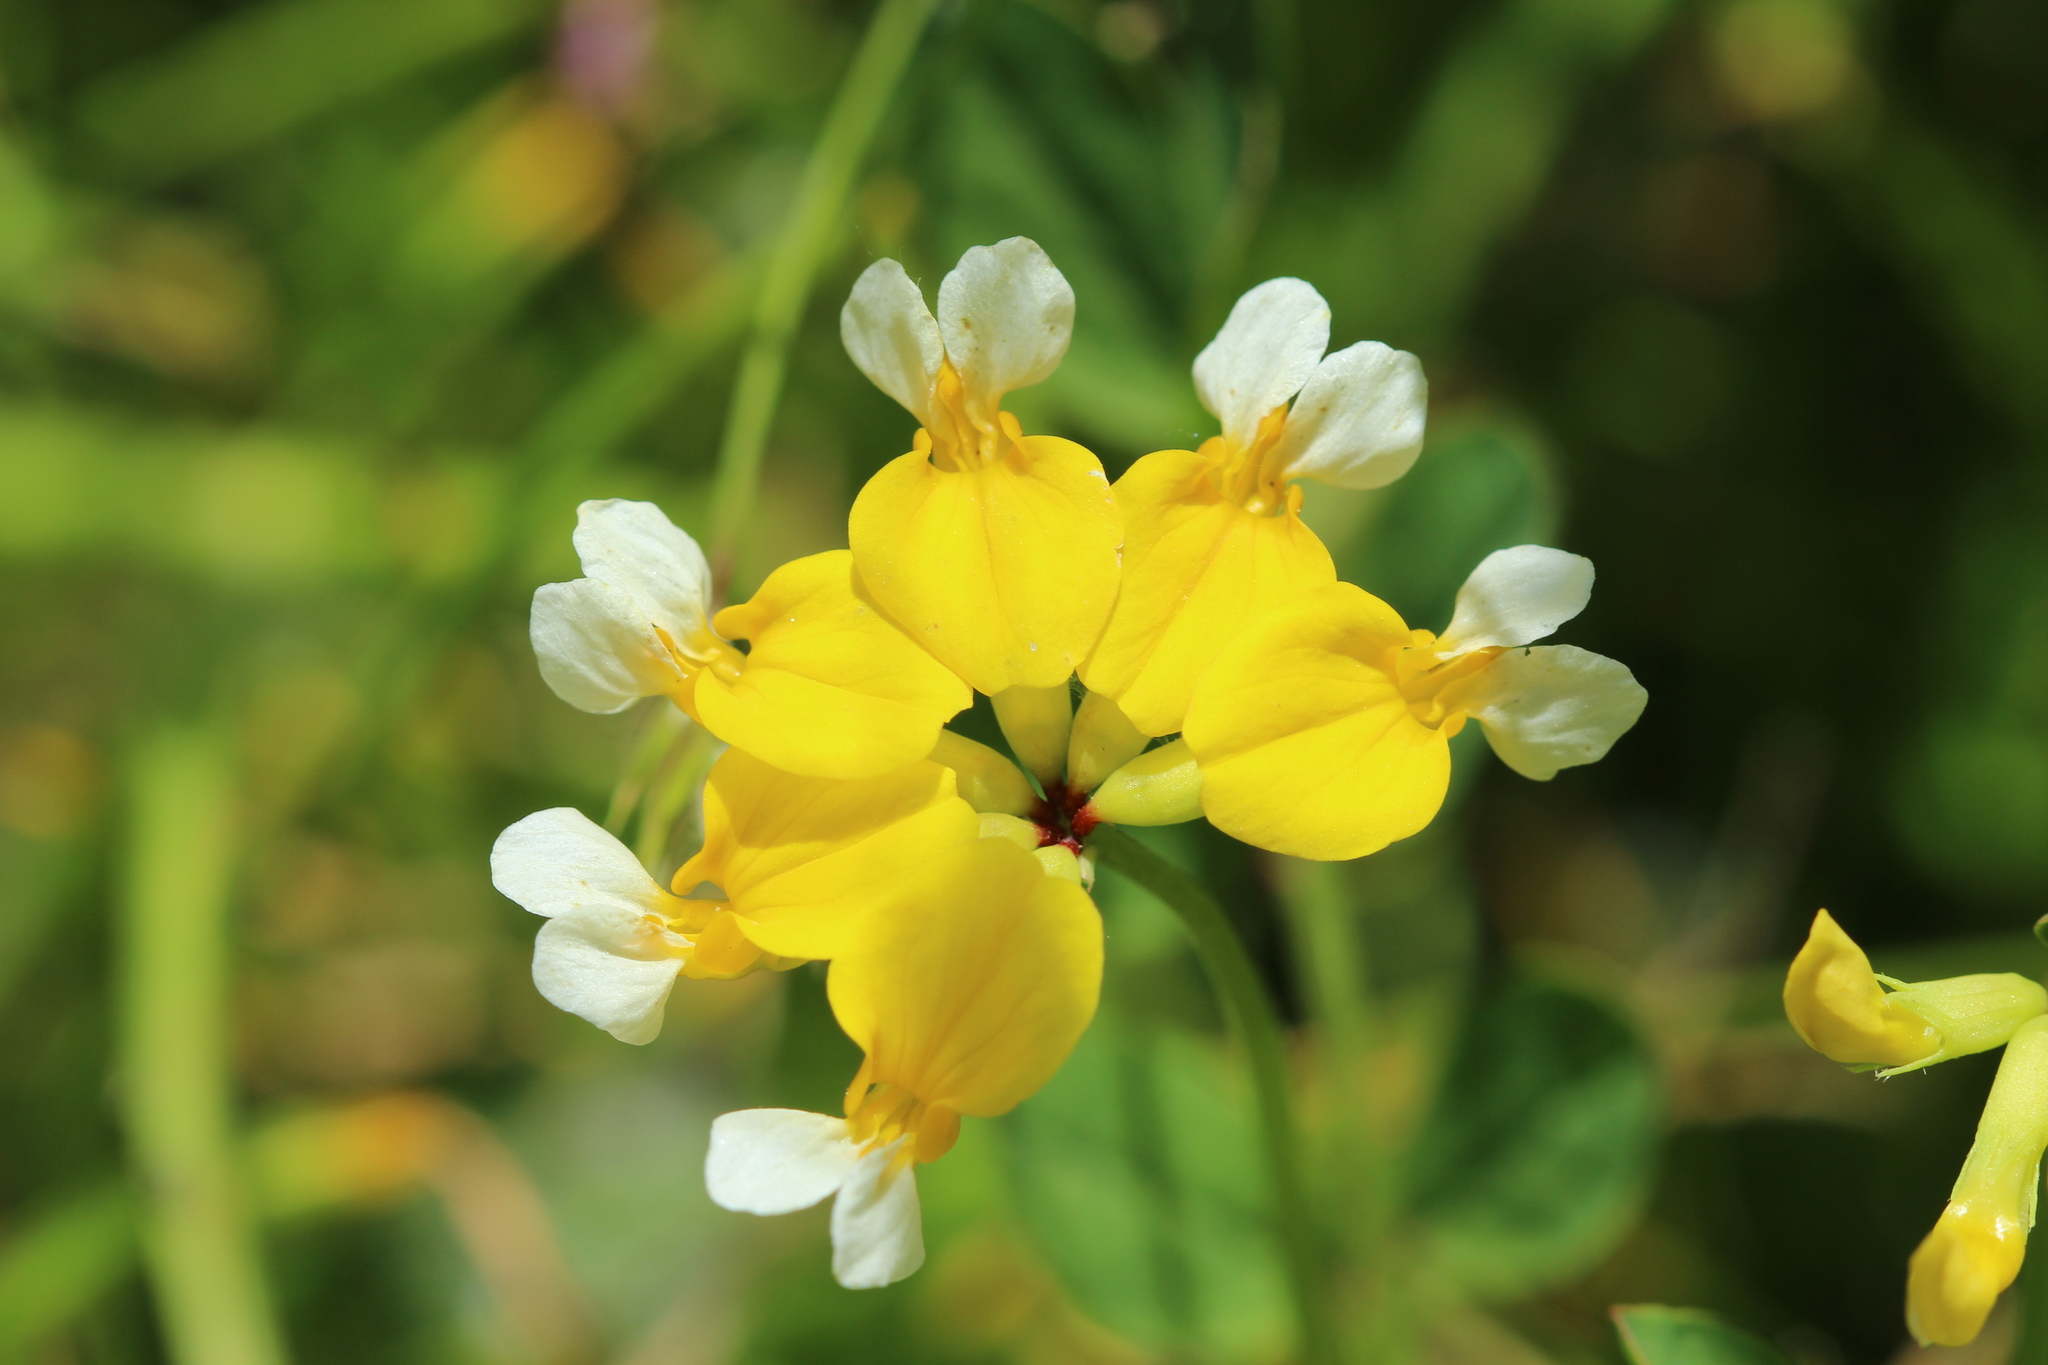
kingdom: Plantae
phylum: Tracheophyta
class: Magnoliopsida
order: Fabales
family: Fabaceae
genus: Hosackia
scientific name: Hosackia pinnata
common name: Bog bird's-foot trefoil
